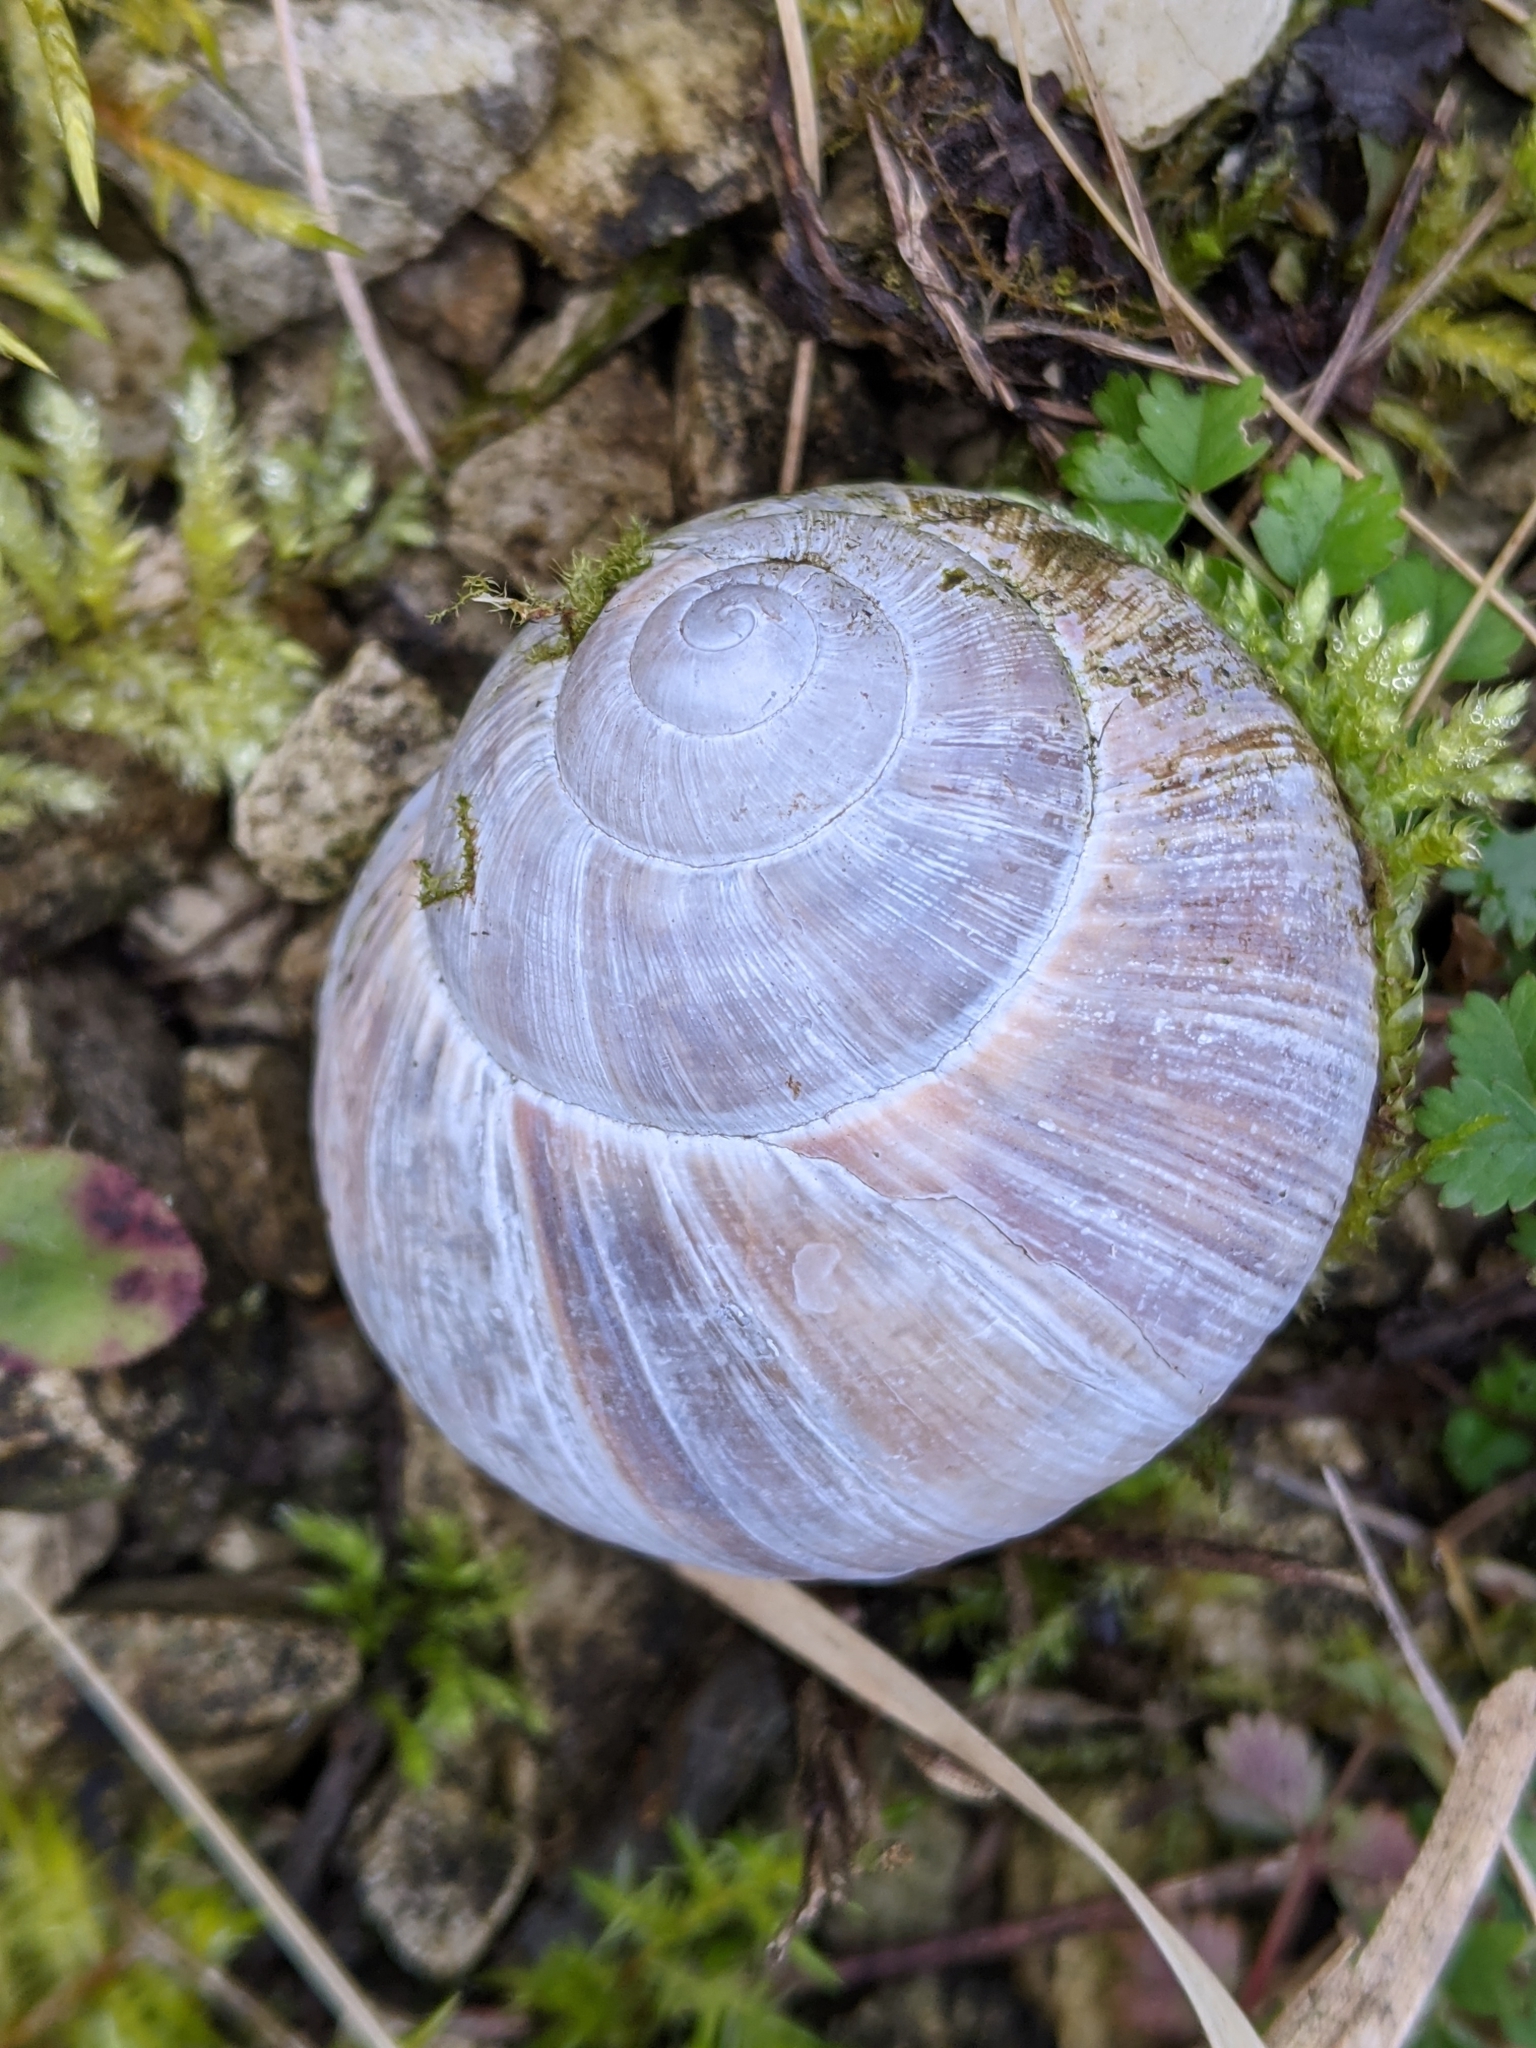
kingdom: Animalia
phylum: Mollusca
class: Gastropoda
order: Stylommatophora
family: Helicidae
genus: Helix
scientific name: Helix pomatia
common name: Roman snail
